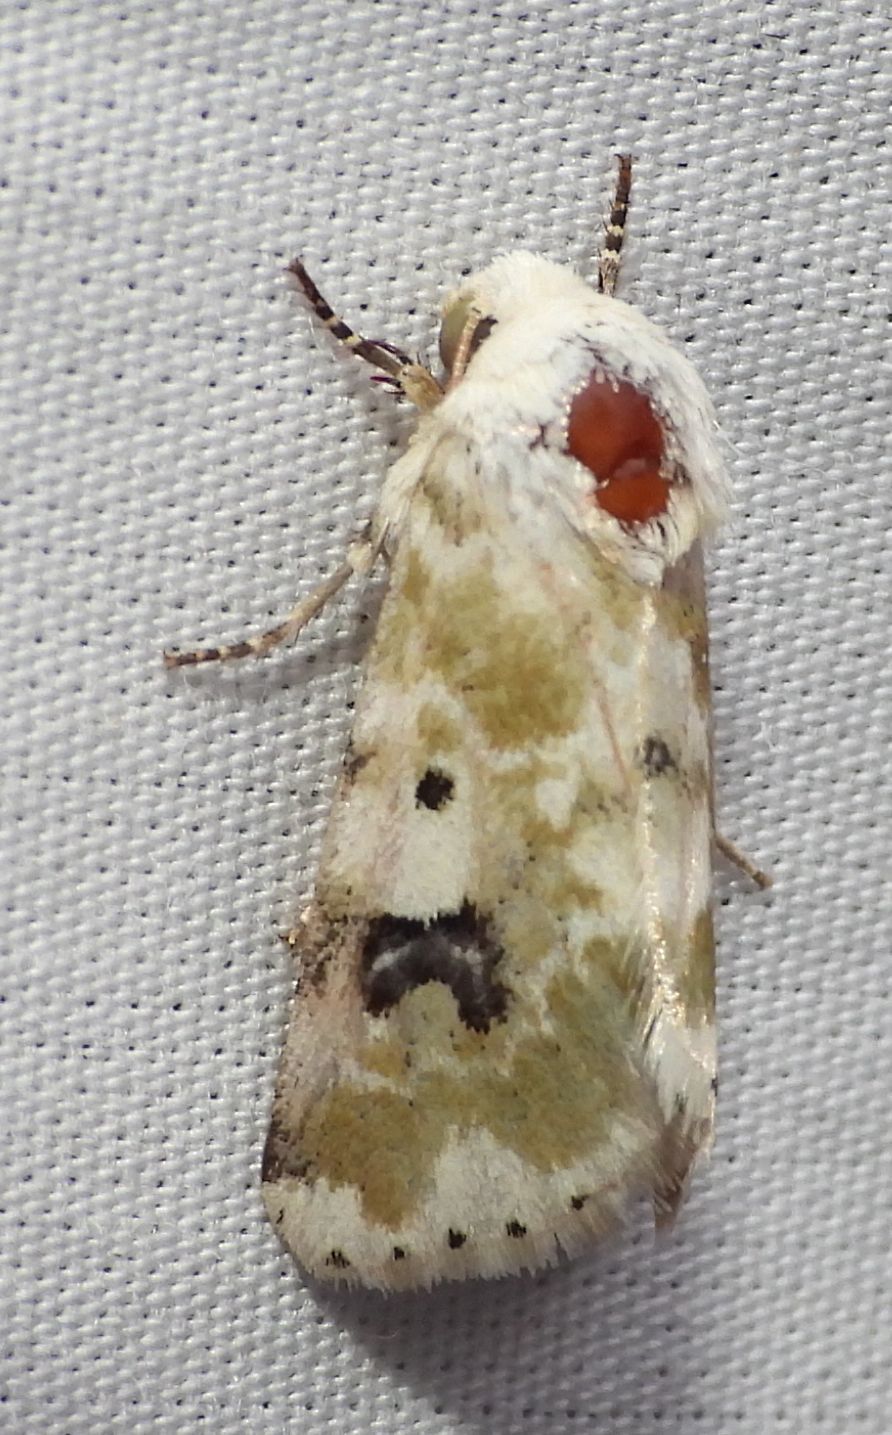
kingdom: Animalia
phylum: Arthropoda
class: Insecta
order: Lepidoptera
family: Noctuidae
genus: Schinia
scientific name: Schinia nundina
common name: Goldenrod flower moth
